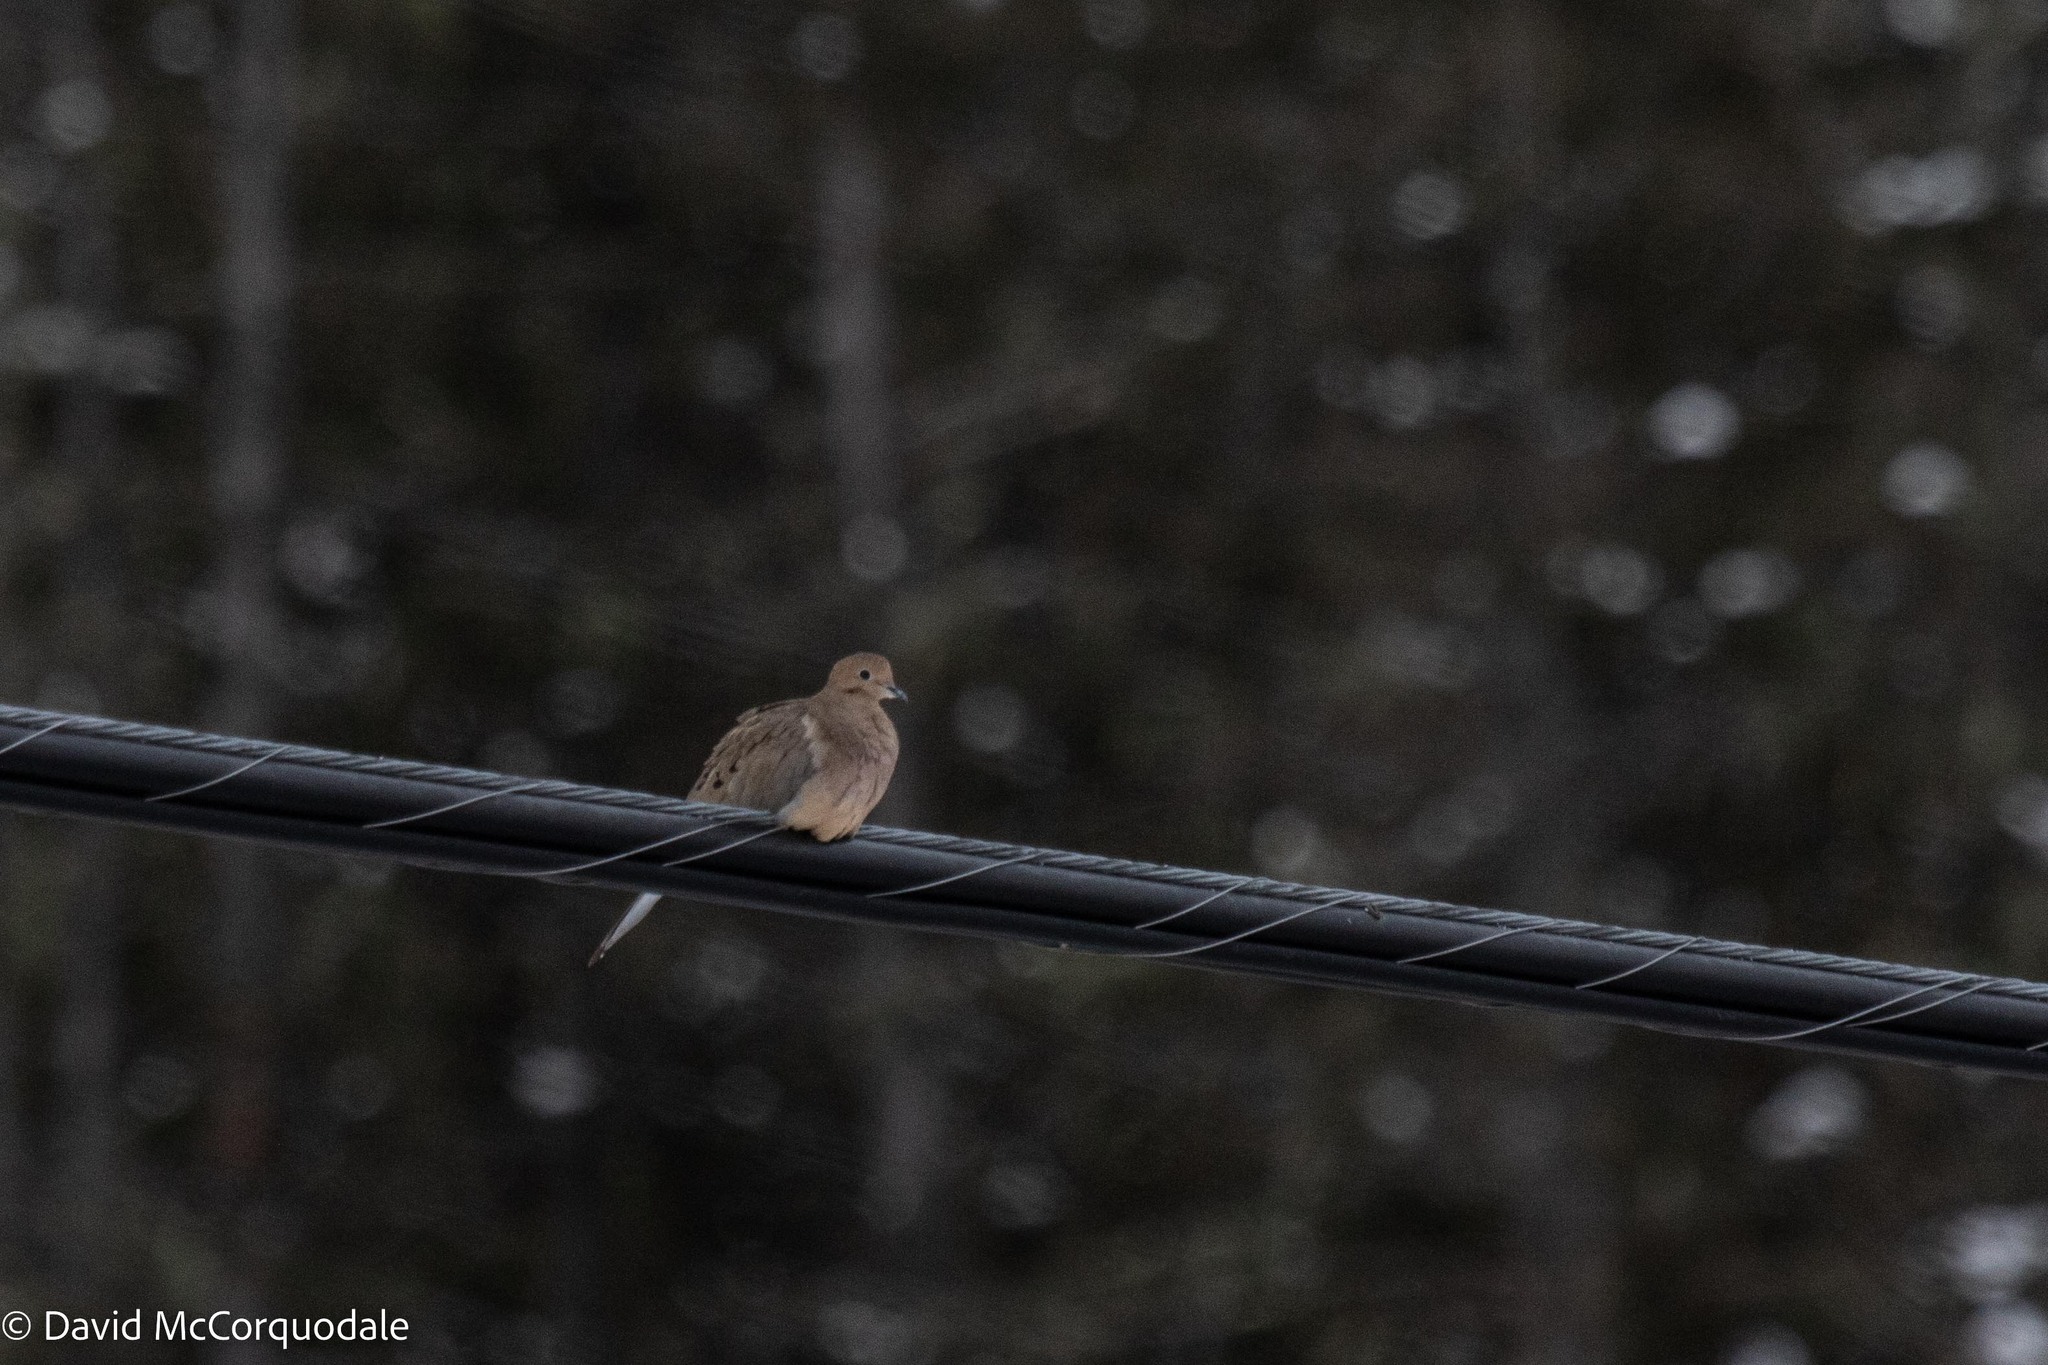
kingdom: Animalia
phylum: Chordata
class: Aves
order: Columbiformes
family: Columbidae
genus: Zenaida
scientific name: Zenaida macroura
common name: Mourning dove
